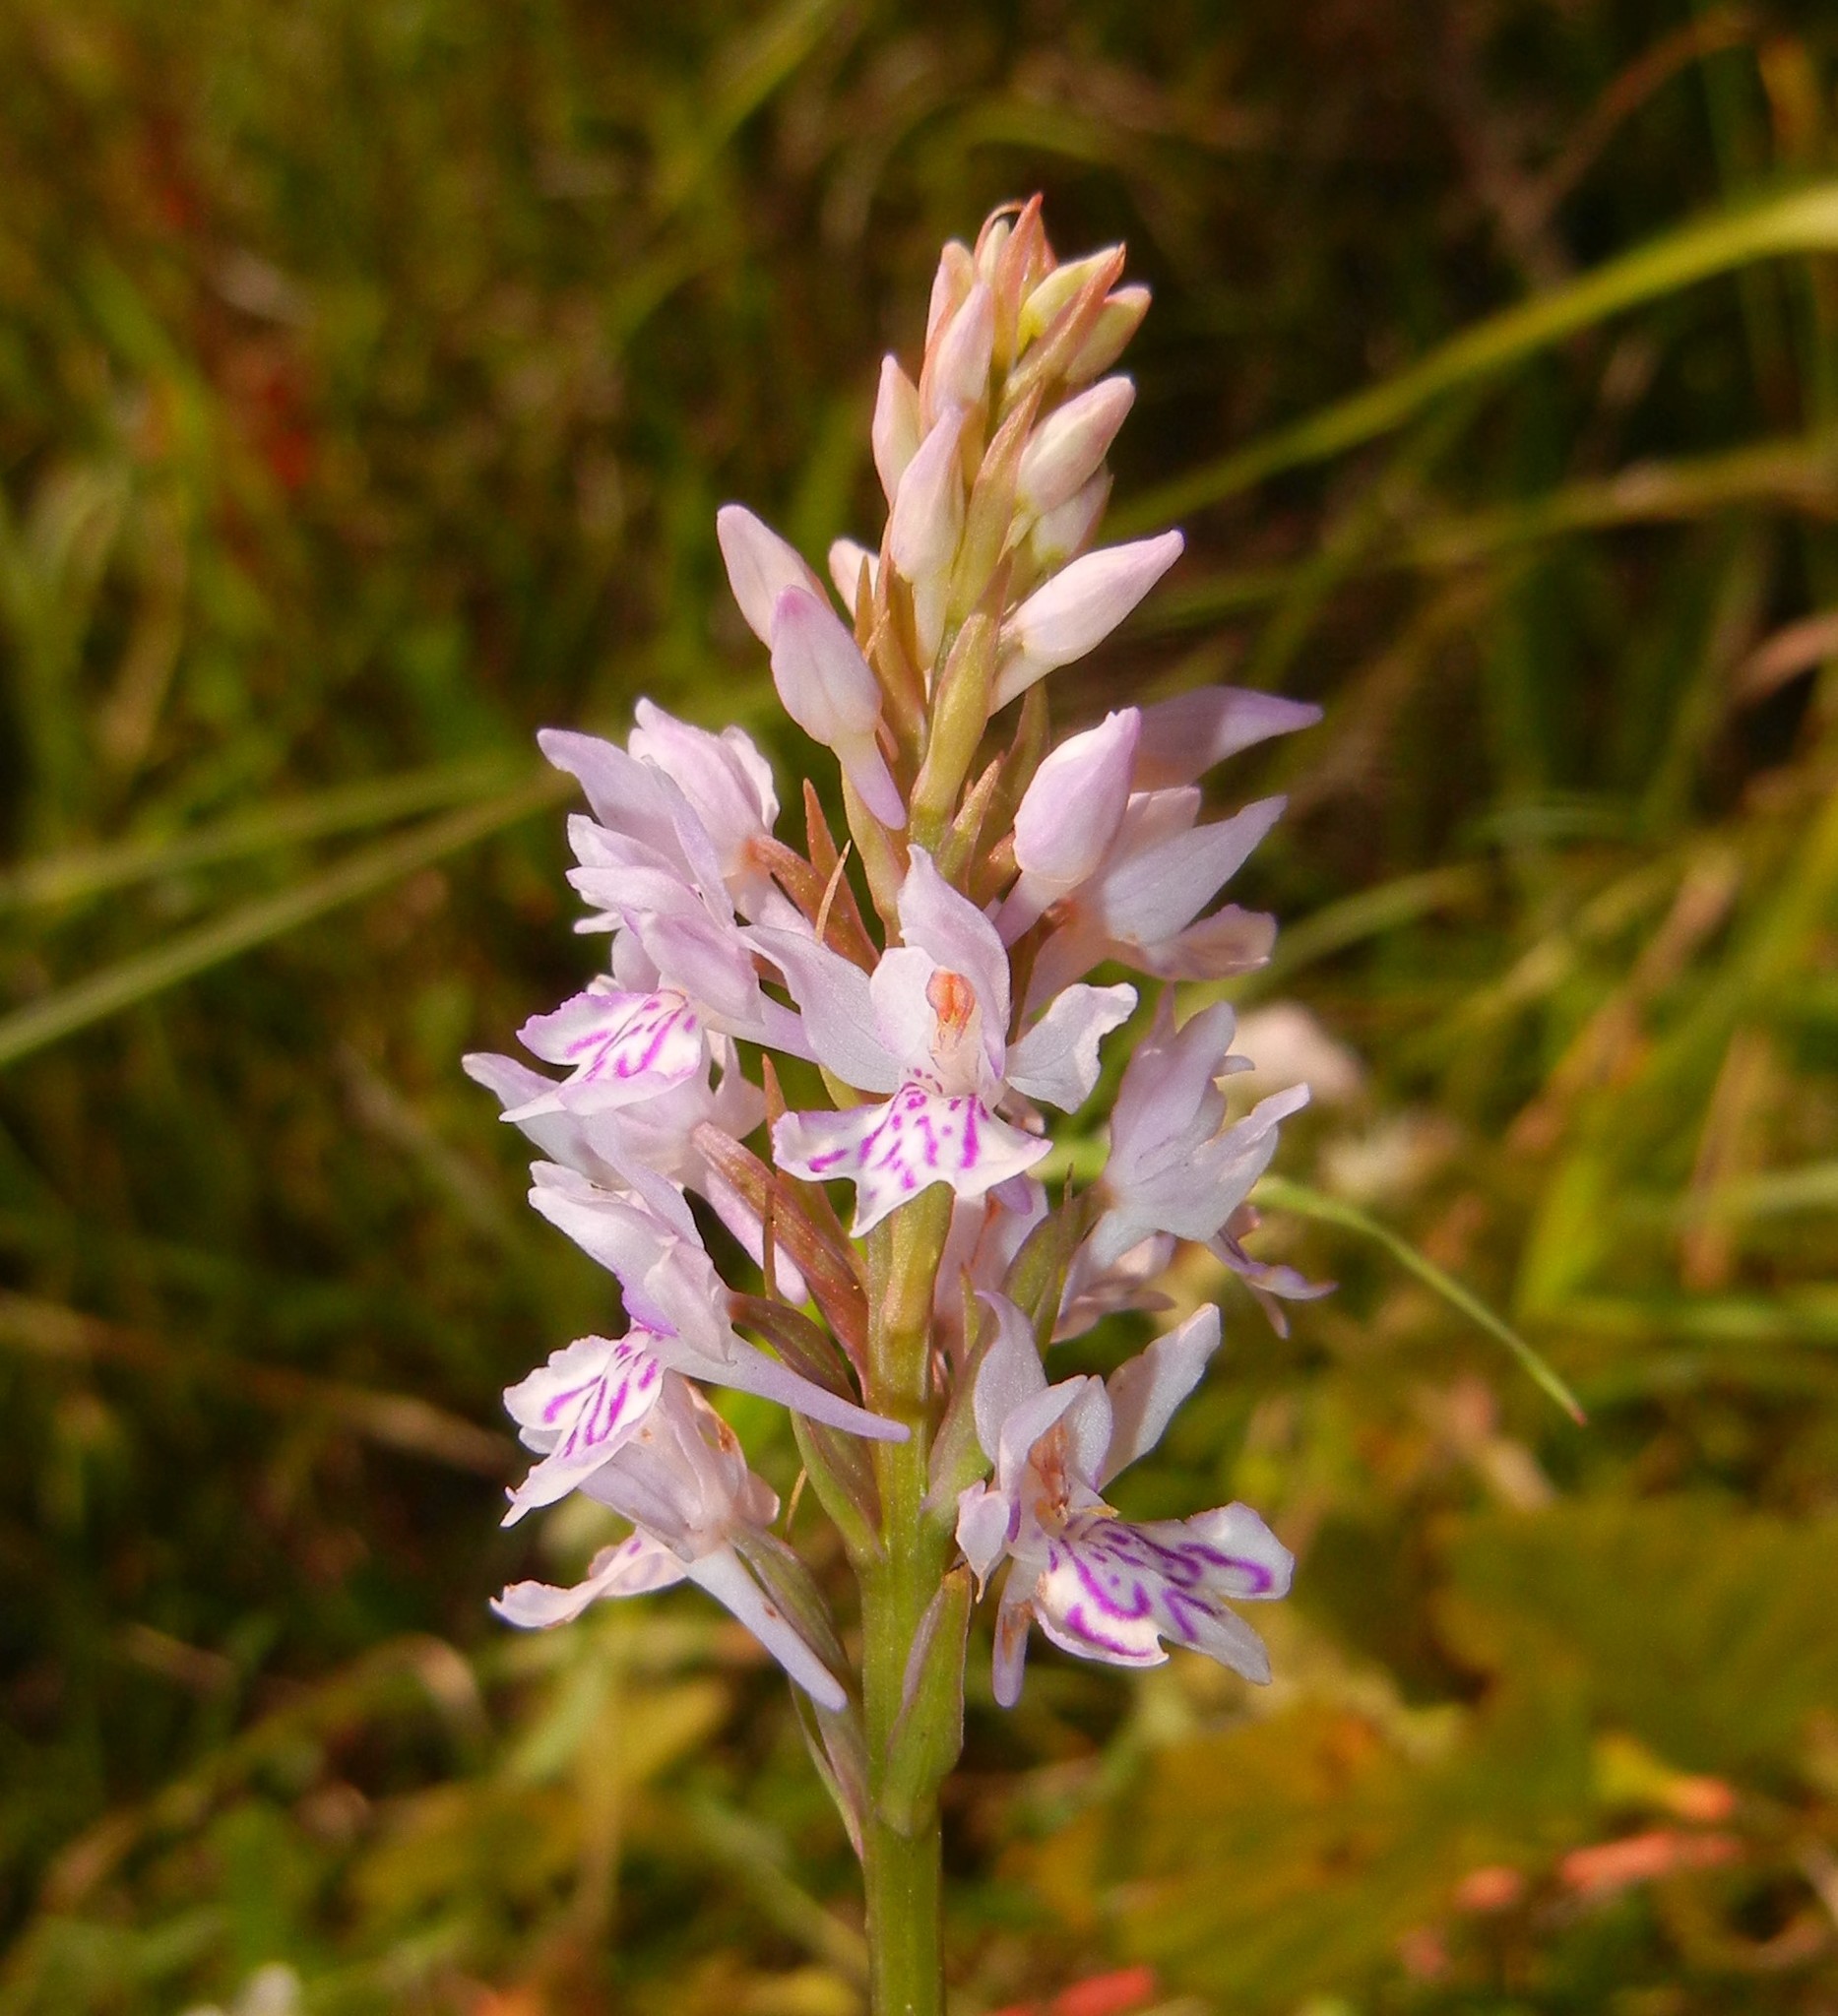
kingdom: Plantae
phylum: Tracheophyta
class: Liliopsida
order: Asparagales
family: Orchidaceae
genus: Dactylorhiza
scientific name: Dactylorhiza maculata
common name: Heath spotted-orchid
